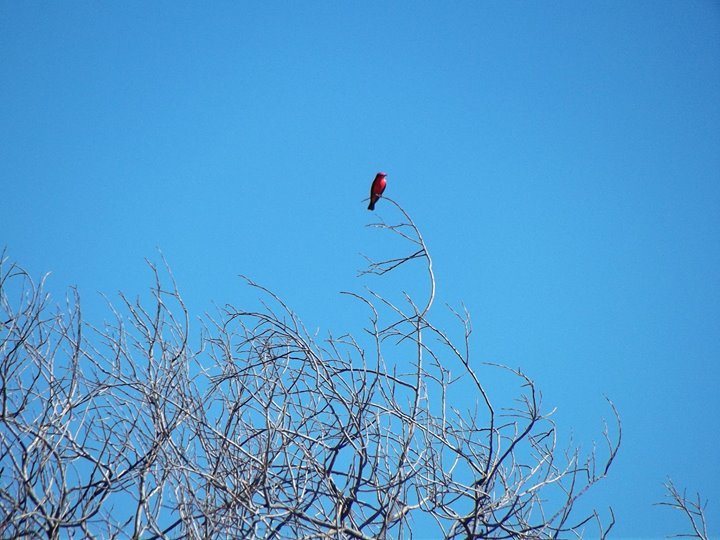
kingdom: Animalia
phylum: Chordata
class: Aves
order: Passeriformes
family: Tyrannidae
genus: Pyrocephalus
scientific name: Pyrocephalus rubinus
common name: Vermilion flycatcher
